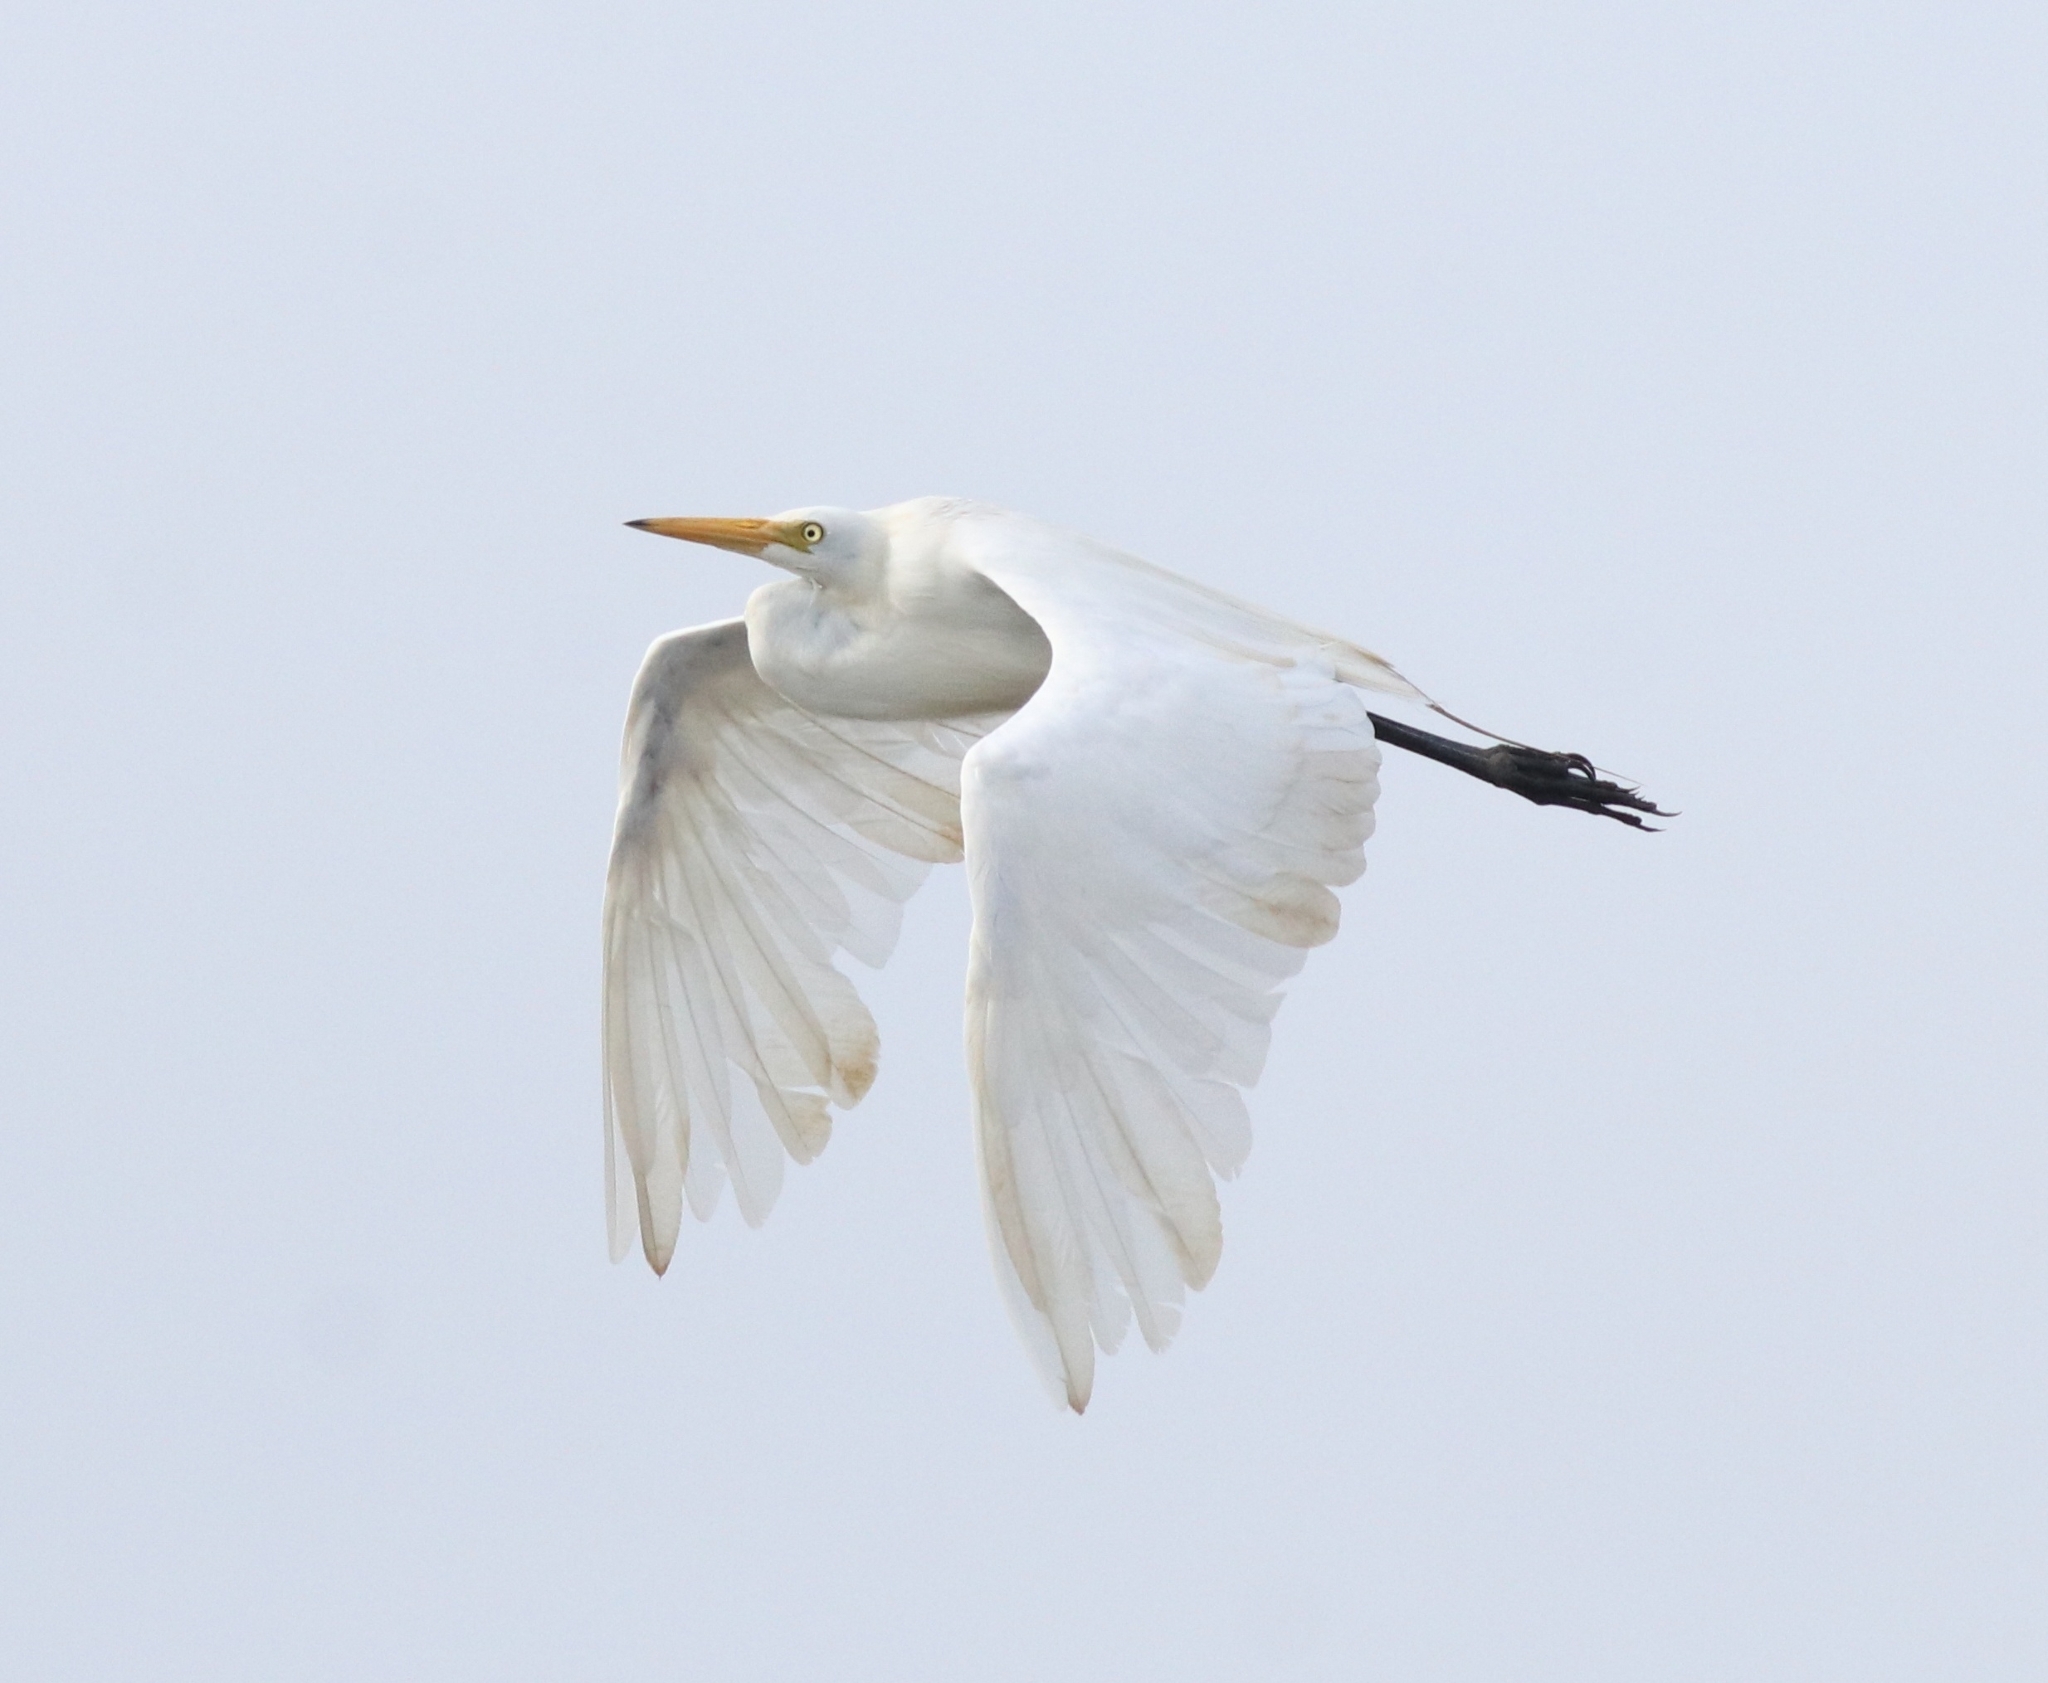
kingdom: Animalia
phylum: Chordata
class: Aves
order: Pelecaniformes
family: Ardeidae
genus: Egretta
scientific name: Egretta intermedia
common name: Intermediate egret
